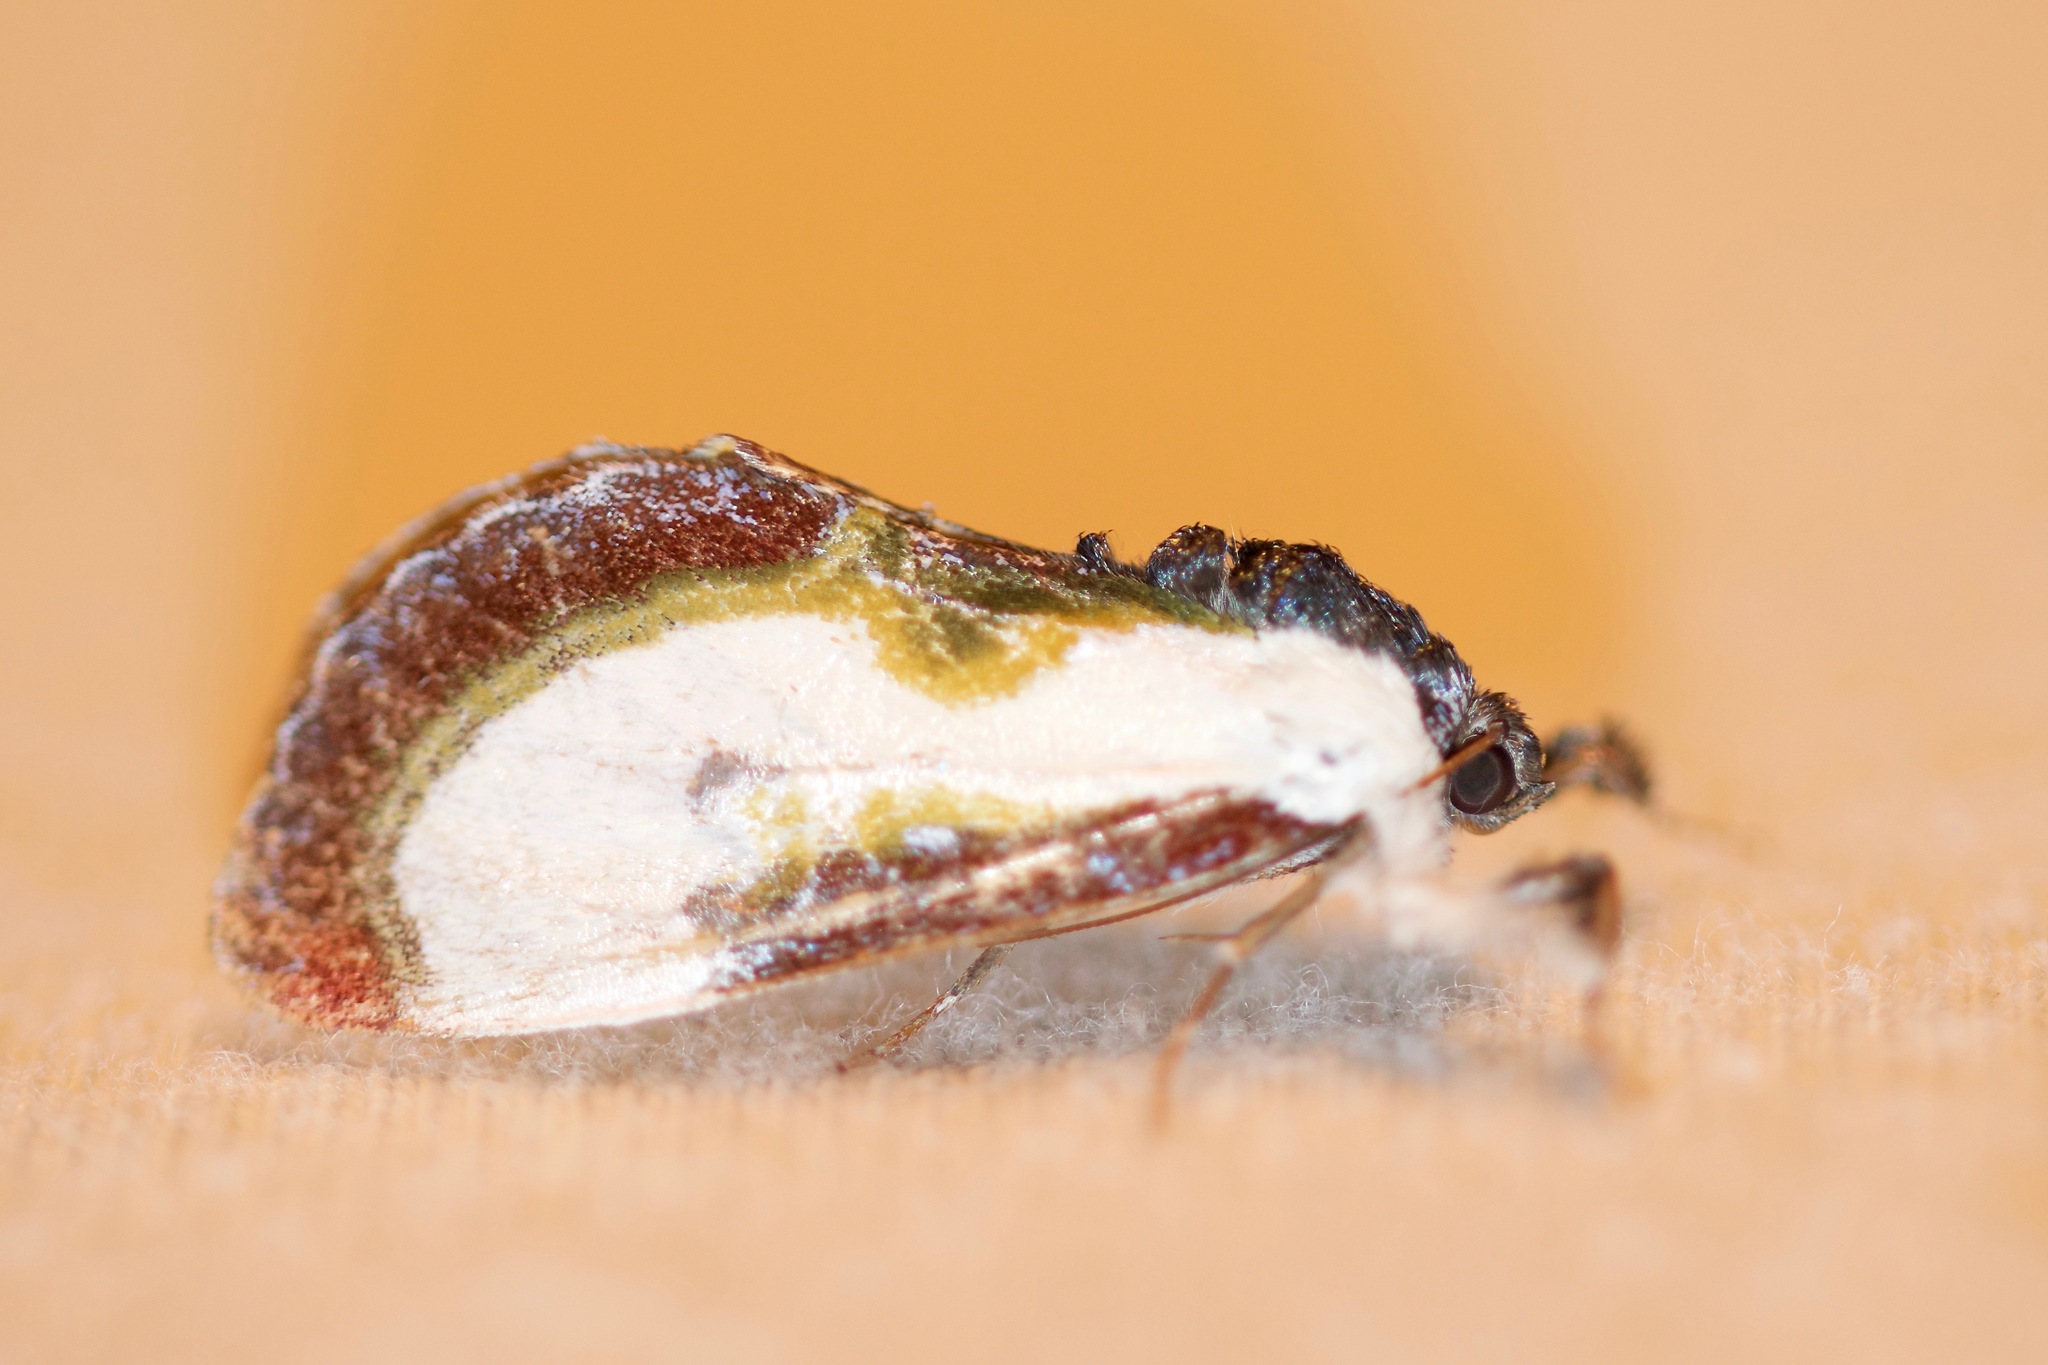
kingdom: Animalia
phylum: Arthropoda
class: Insecta
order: Lepidoptera
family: Noctuidae
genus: Eudryas
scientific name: Eudryas grata
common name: Beautiful wood-nymph
